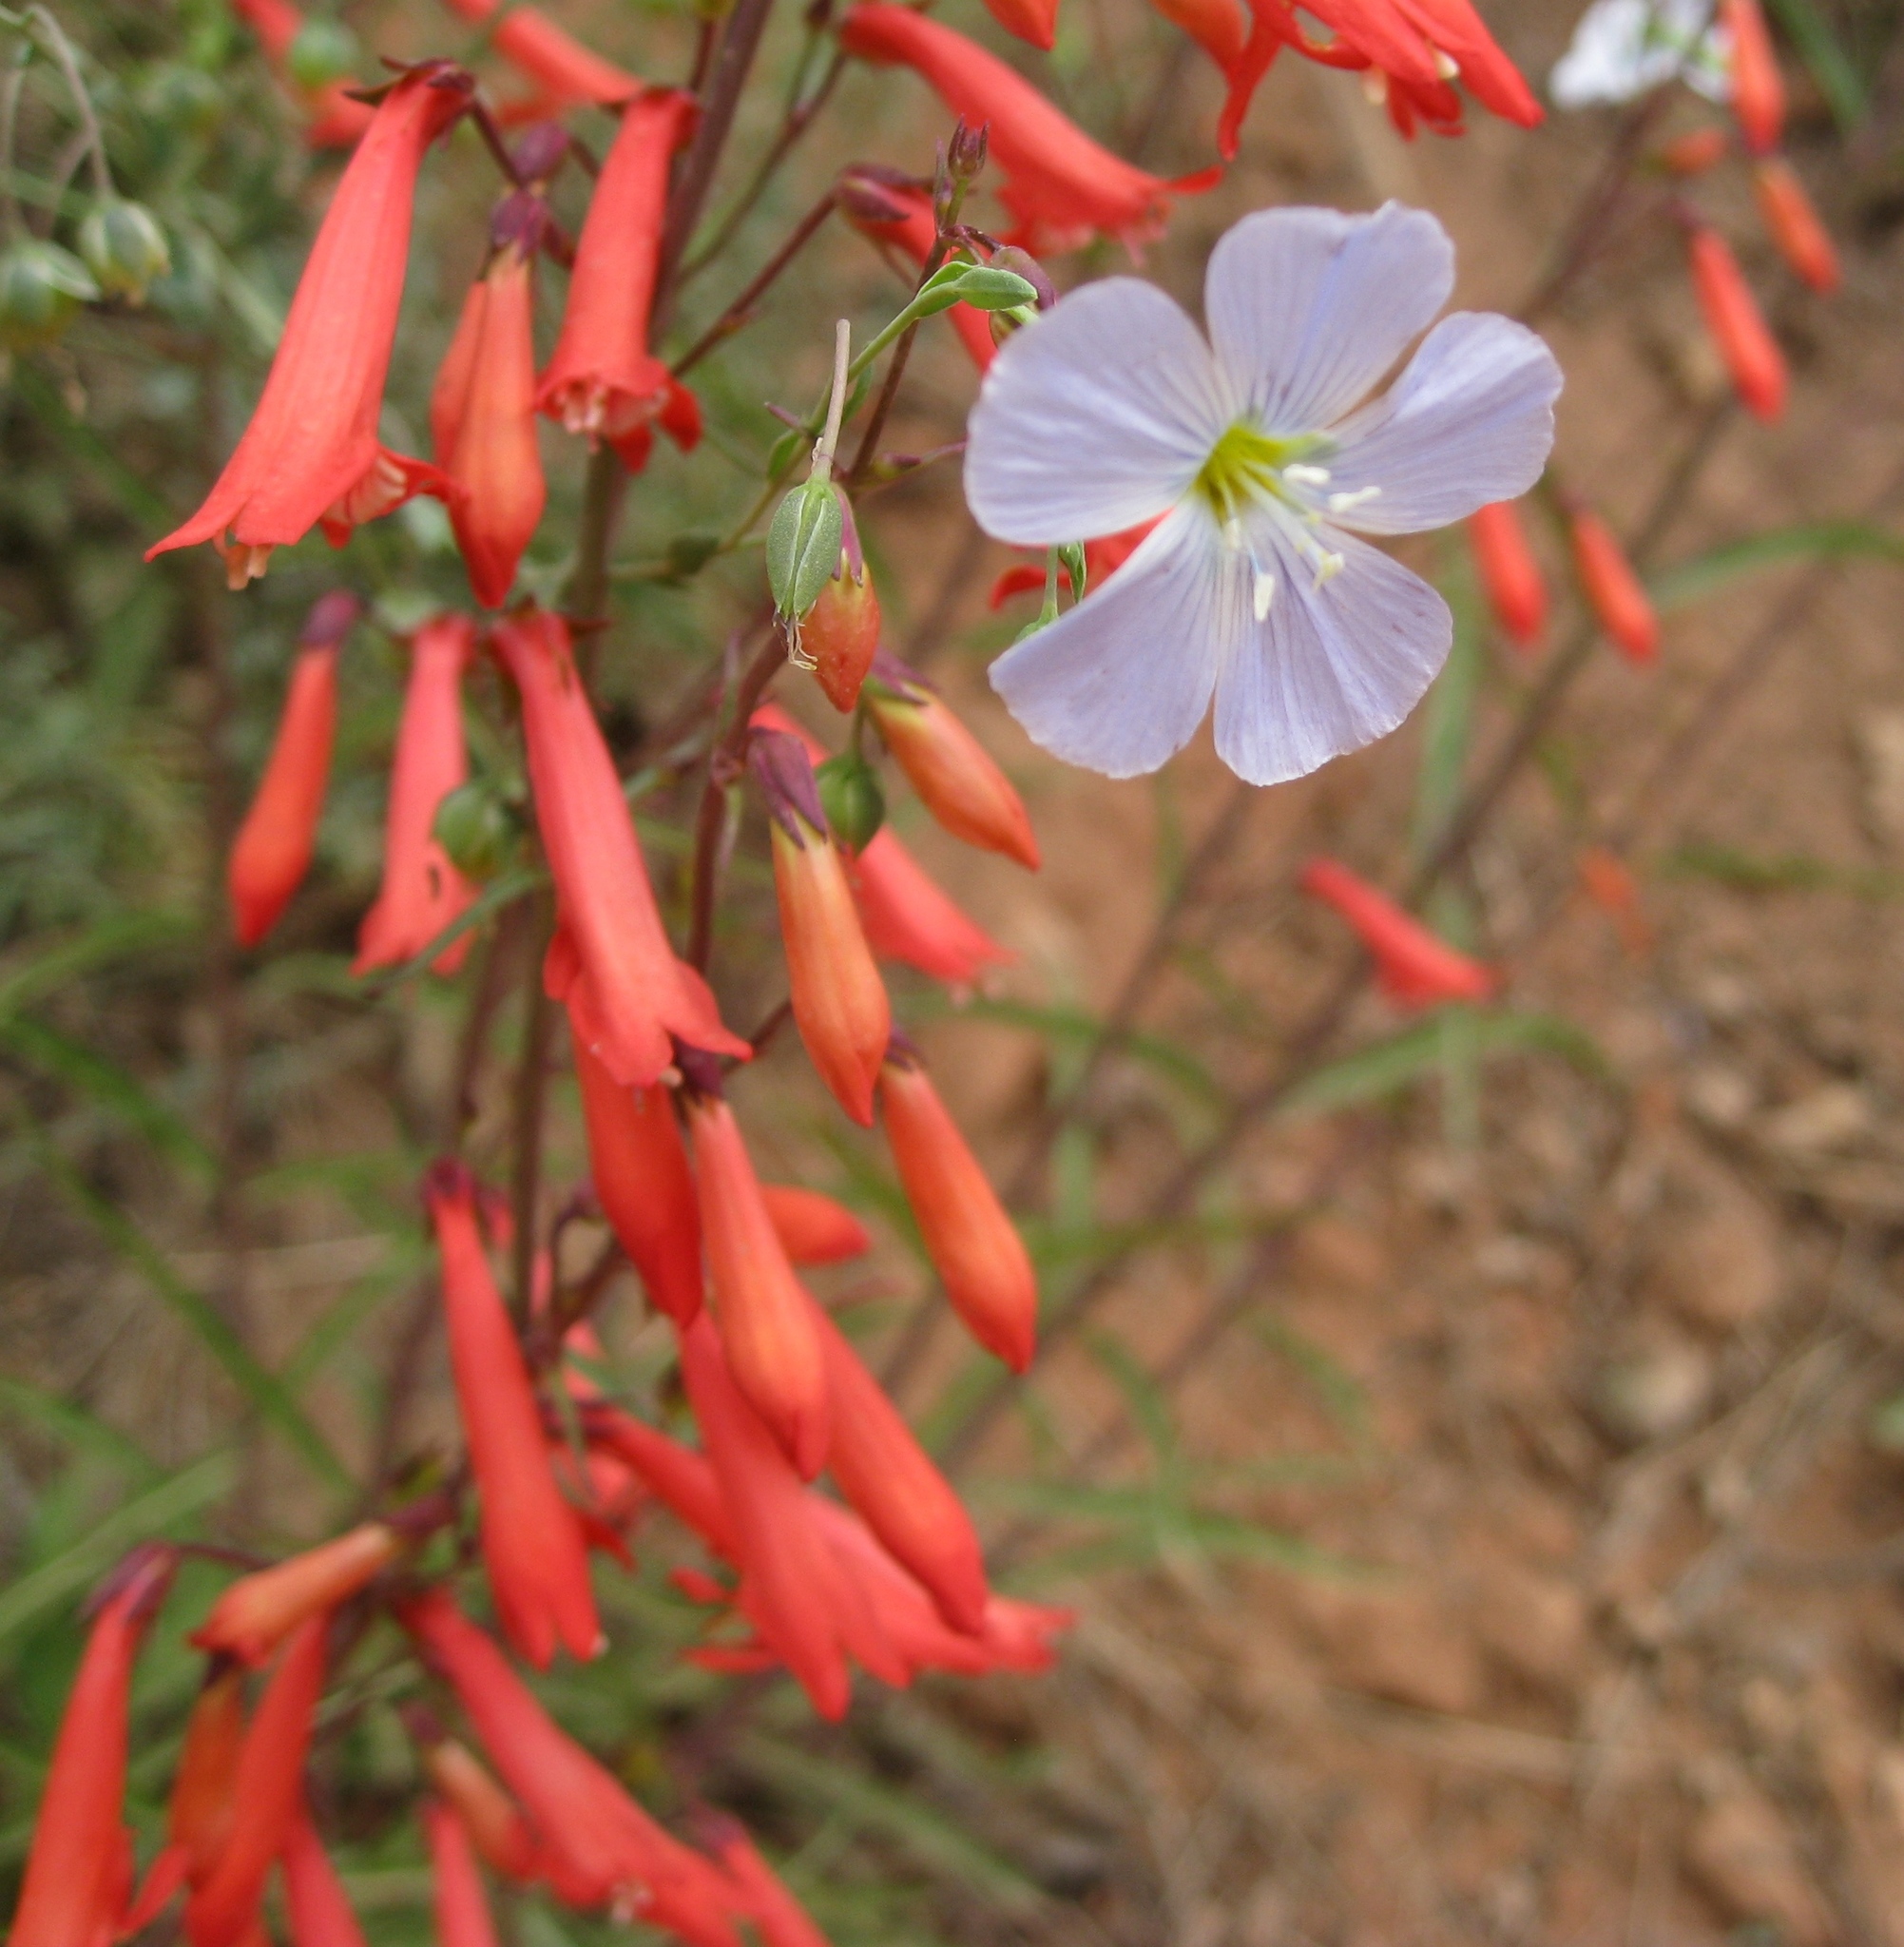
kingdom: Plantae
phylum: Tracheophyta
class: Magnoliopsida
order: Malpighiales
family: Linaceae
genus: Linum
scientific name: Linum lewisii
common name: Prairie flax
